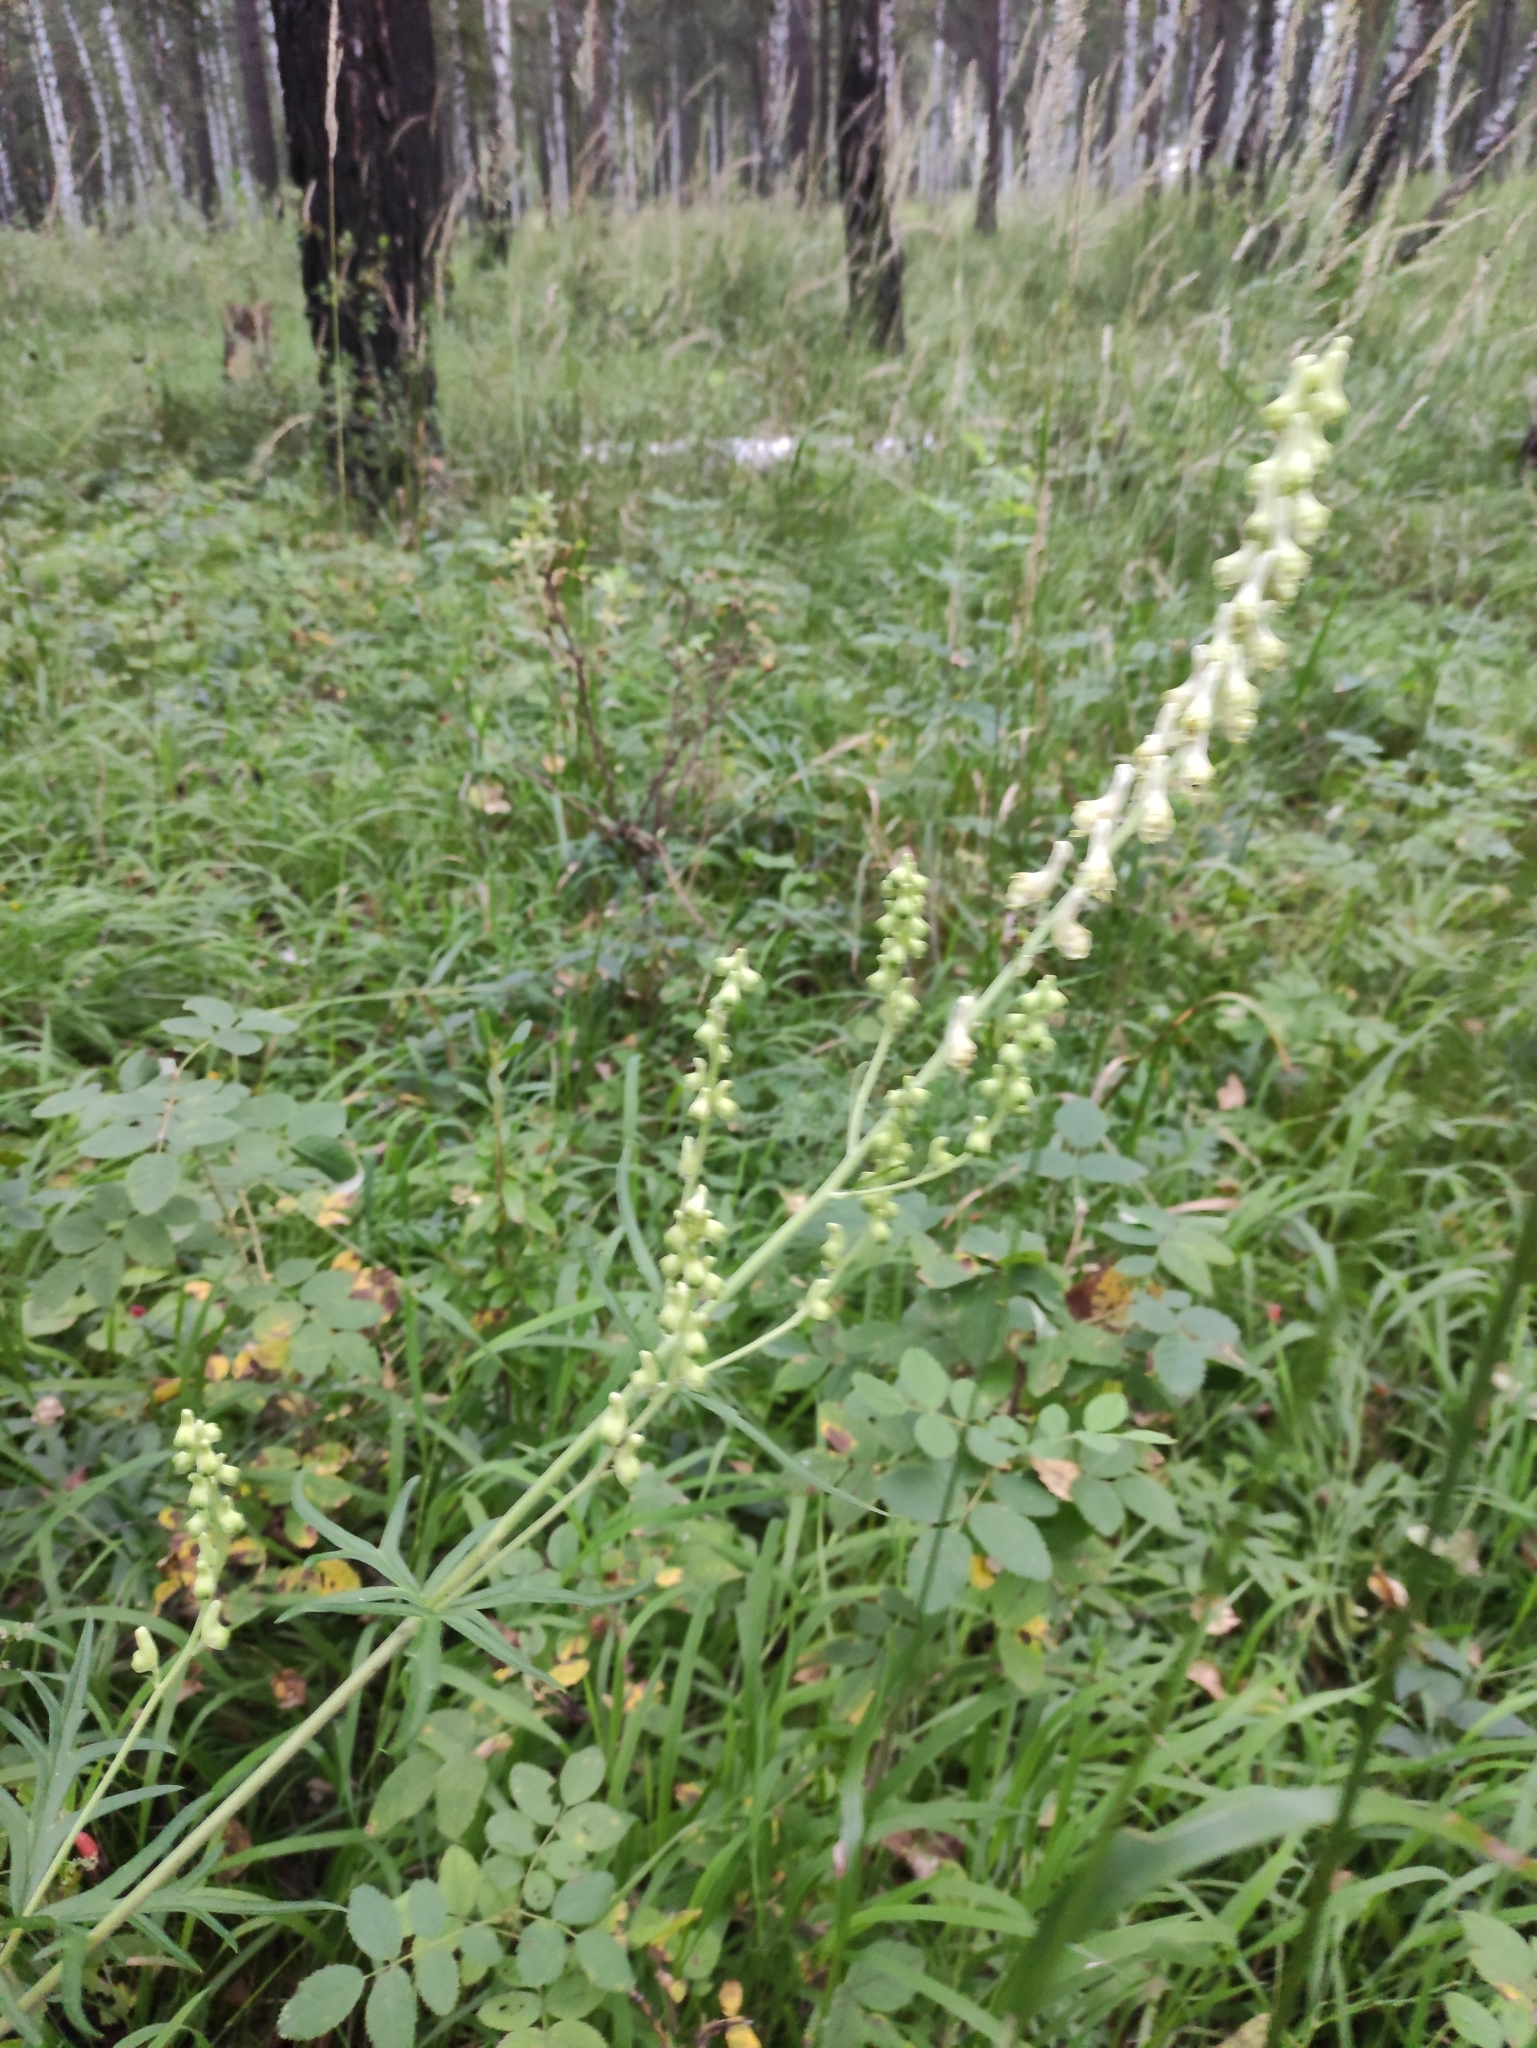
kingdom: Plantae
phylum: Tracheophyta
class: Magnoliopsida
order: Ranunculales
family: Ranunculaceae
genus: Aconitum
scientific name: Aconitum barbatum
